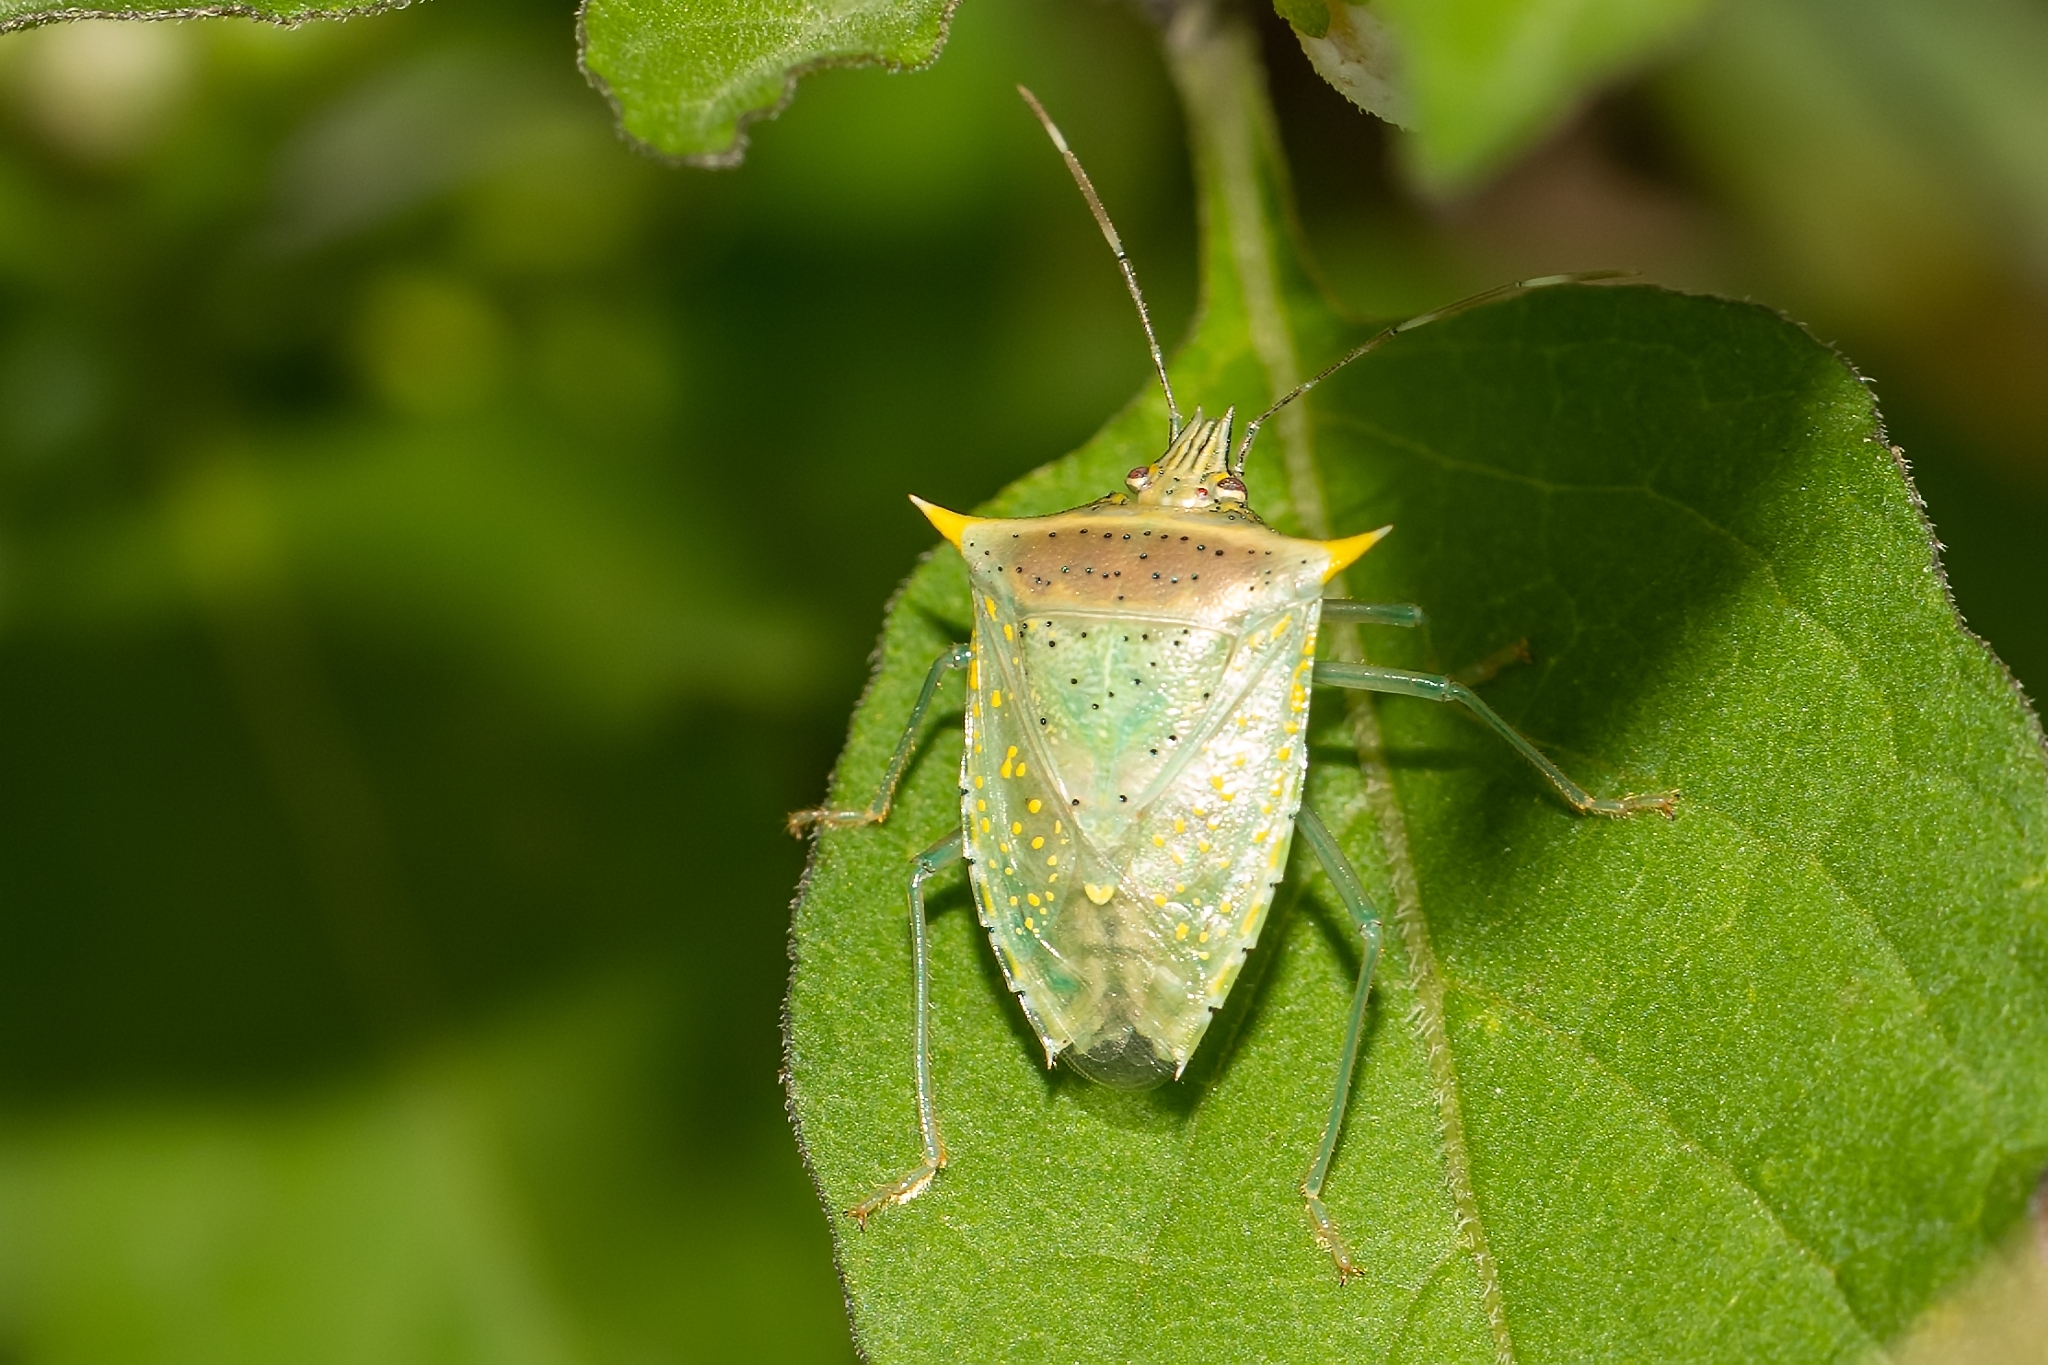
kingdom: Animalia
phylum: Arthropoda
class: Insecta
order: Hemiptera
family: Pentatomidae
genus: Arvelius
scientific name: Arvelius albopunctatus
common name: Tomato stink bug
